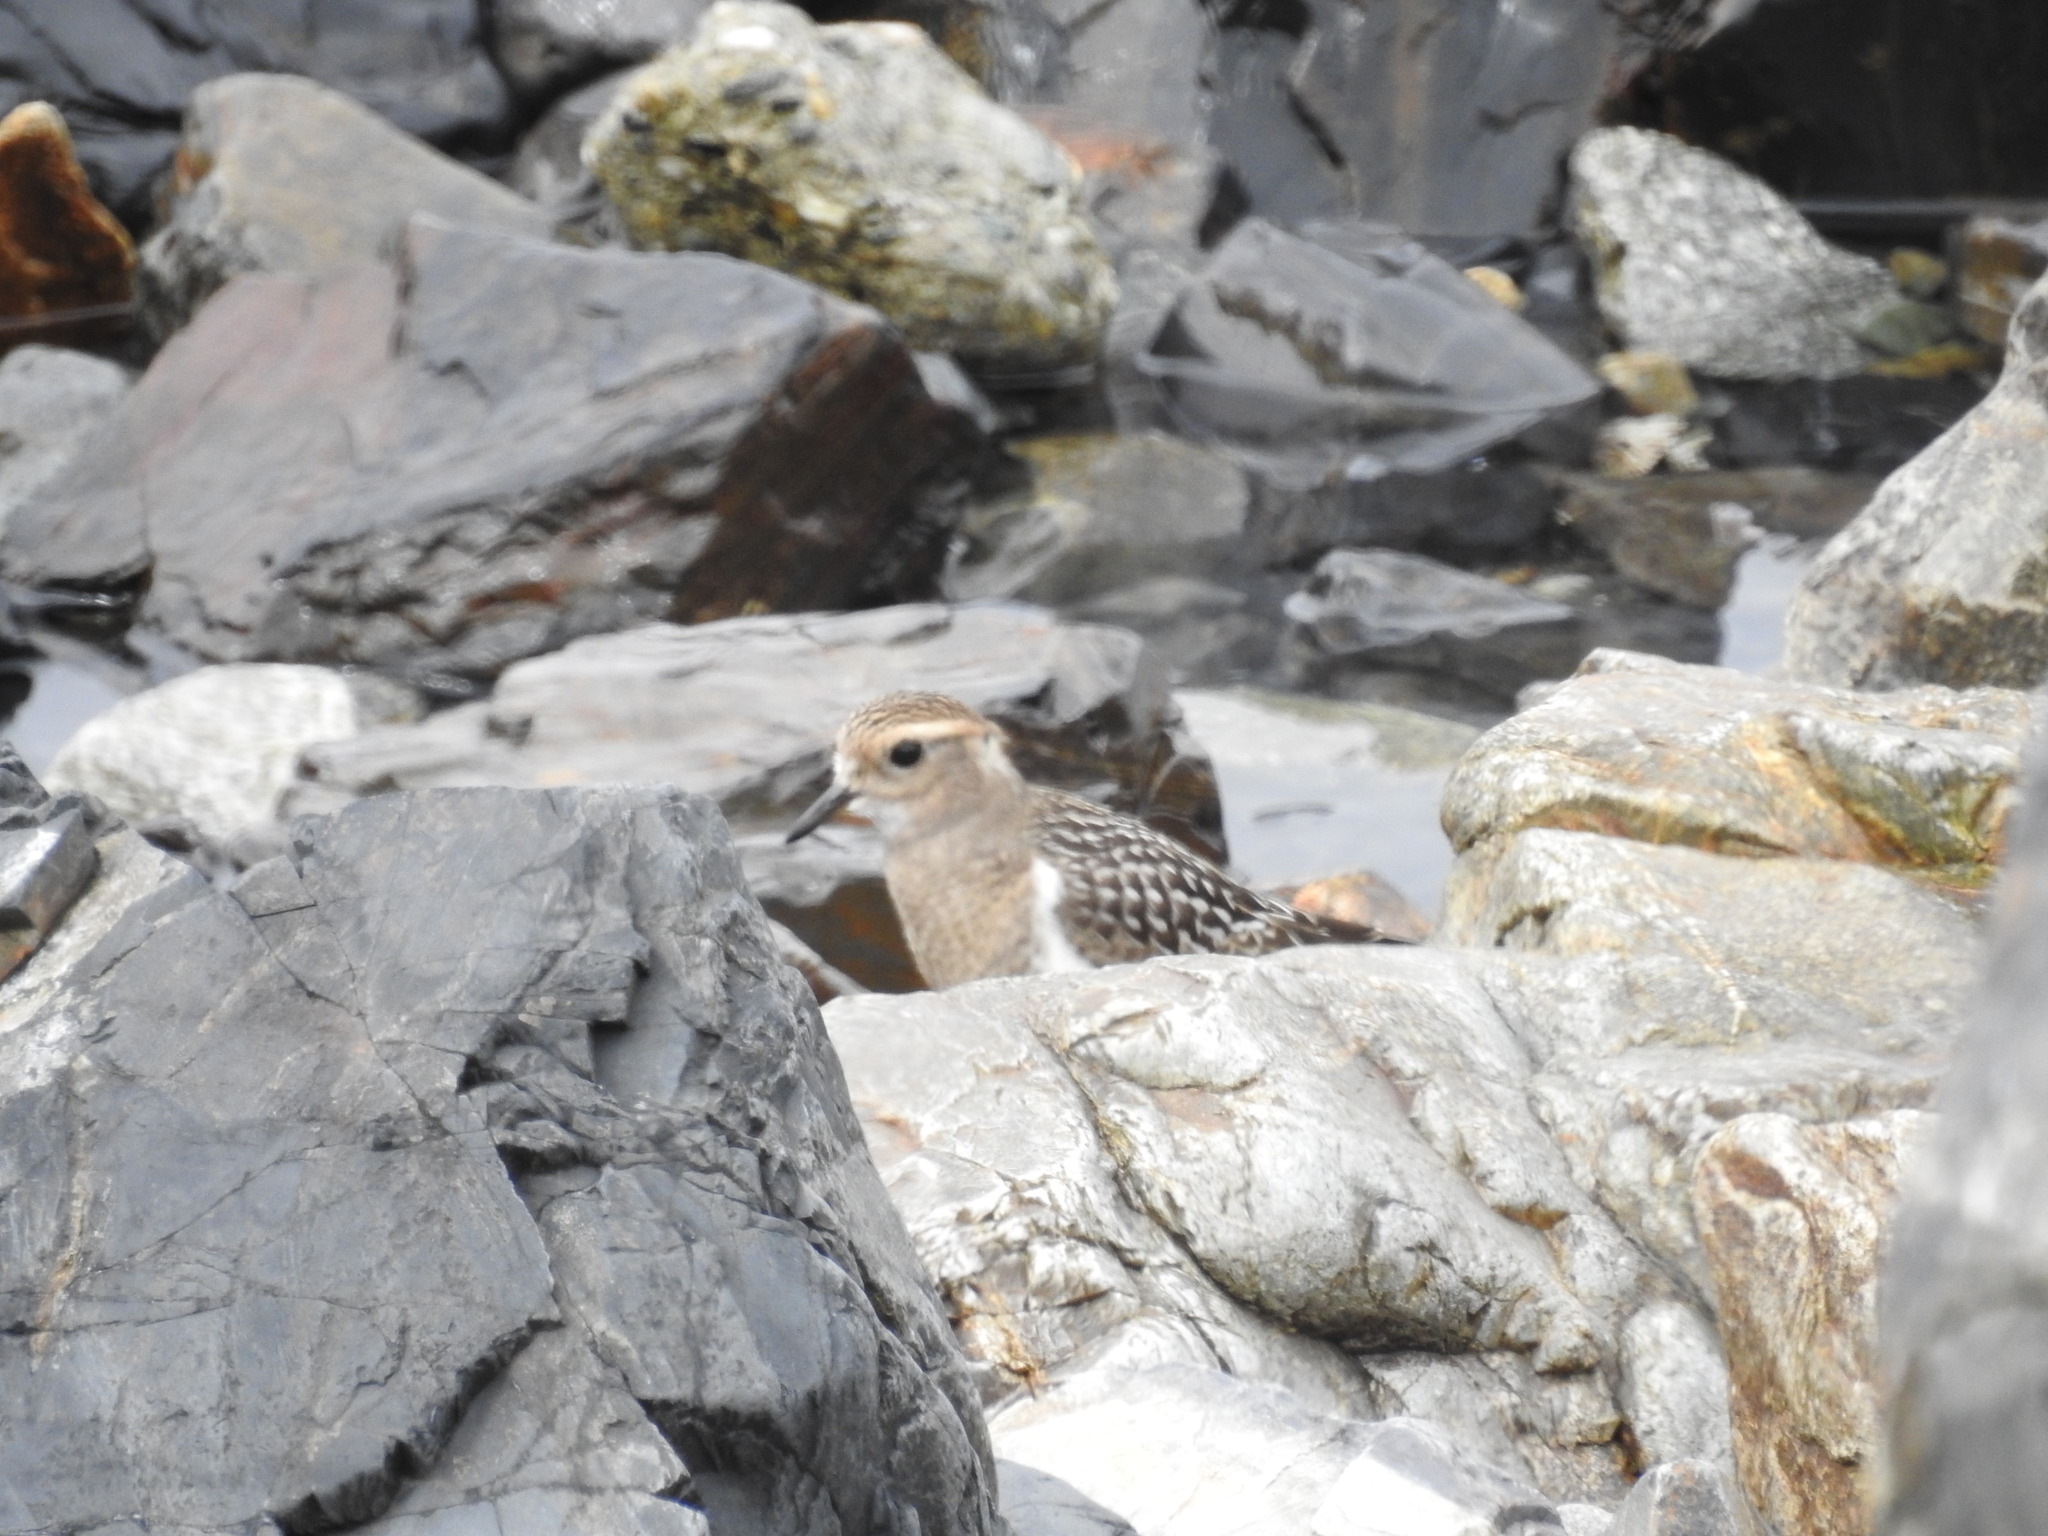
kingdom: Animalia
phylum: Chordata
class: Aves
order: Charadriiformes
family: Charadriidae
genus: Charadrius
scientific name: Charadrius modestus
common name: Rufous-chested plover
